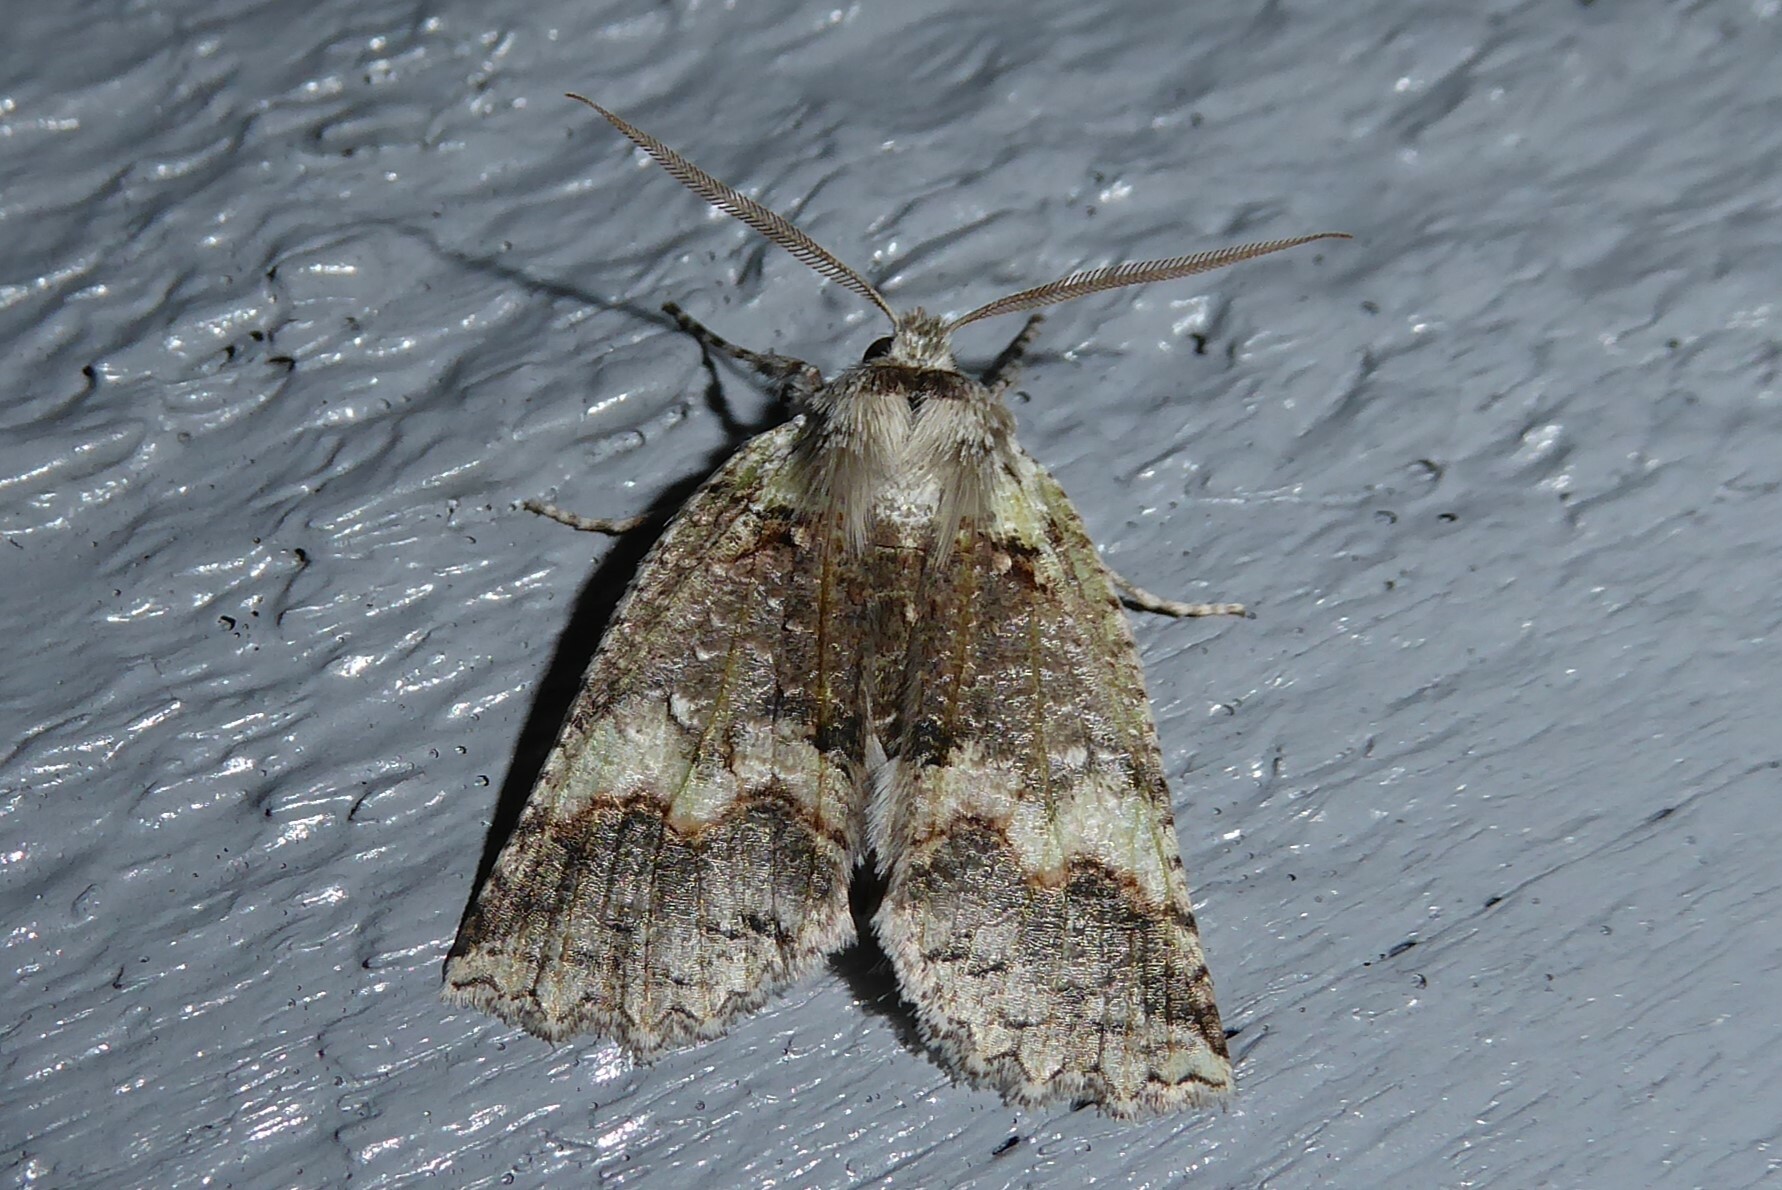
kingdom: Animalia
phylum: Arthropoda
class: Insecta
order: Lepidoptera
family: Geometridae
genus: Declana
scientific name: Declana floccosa
